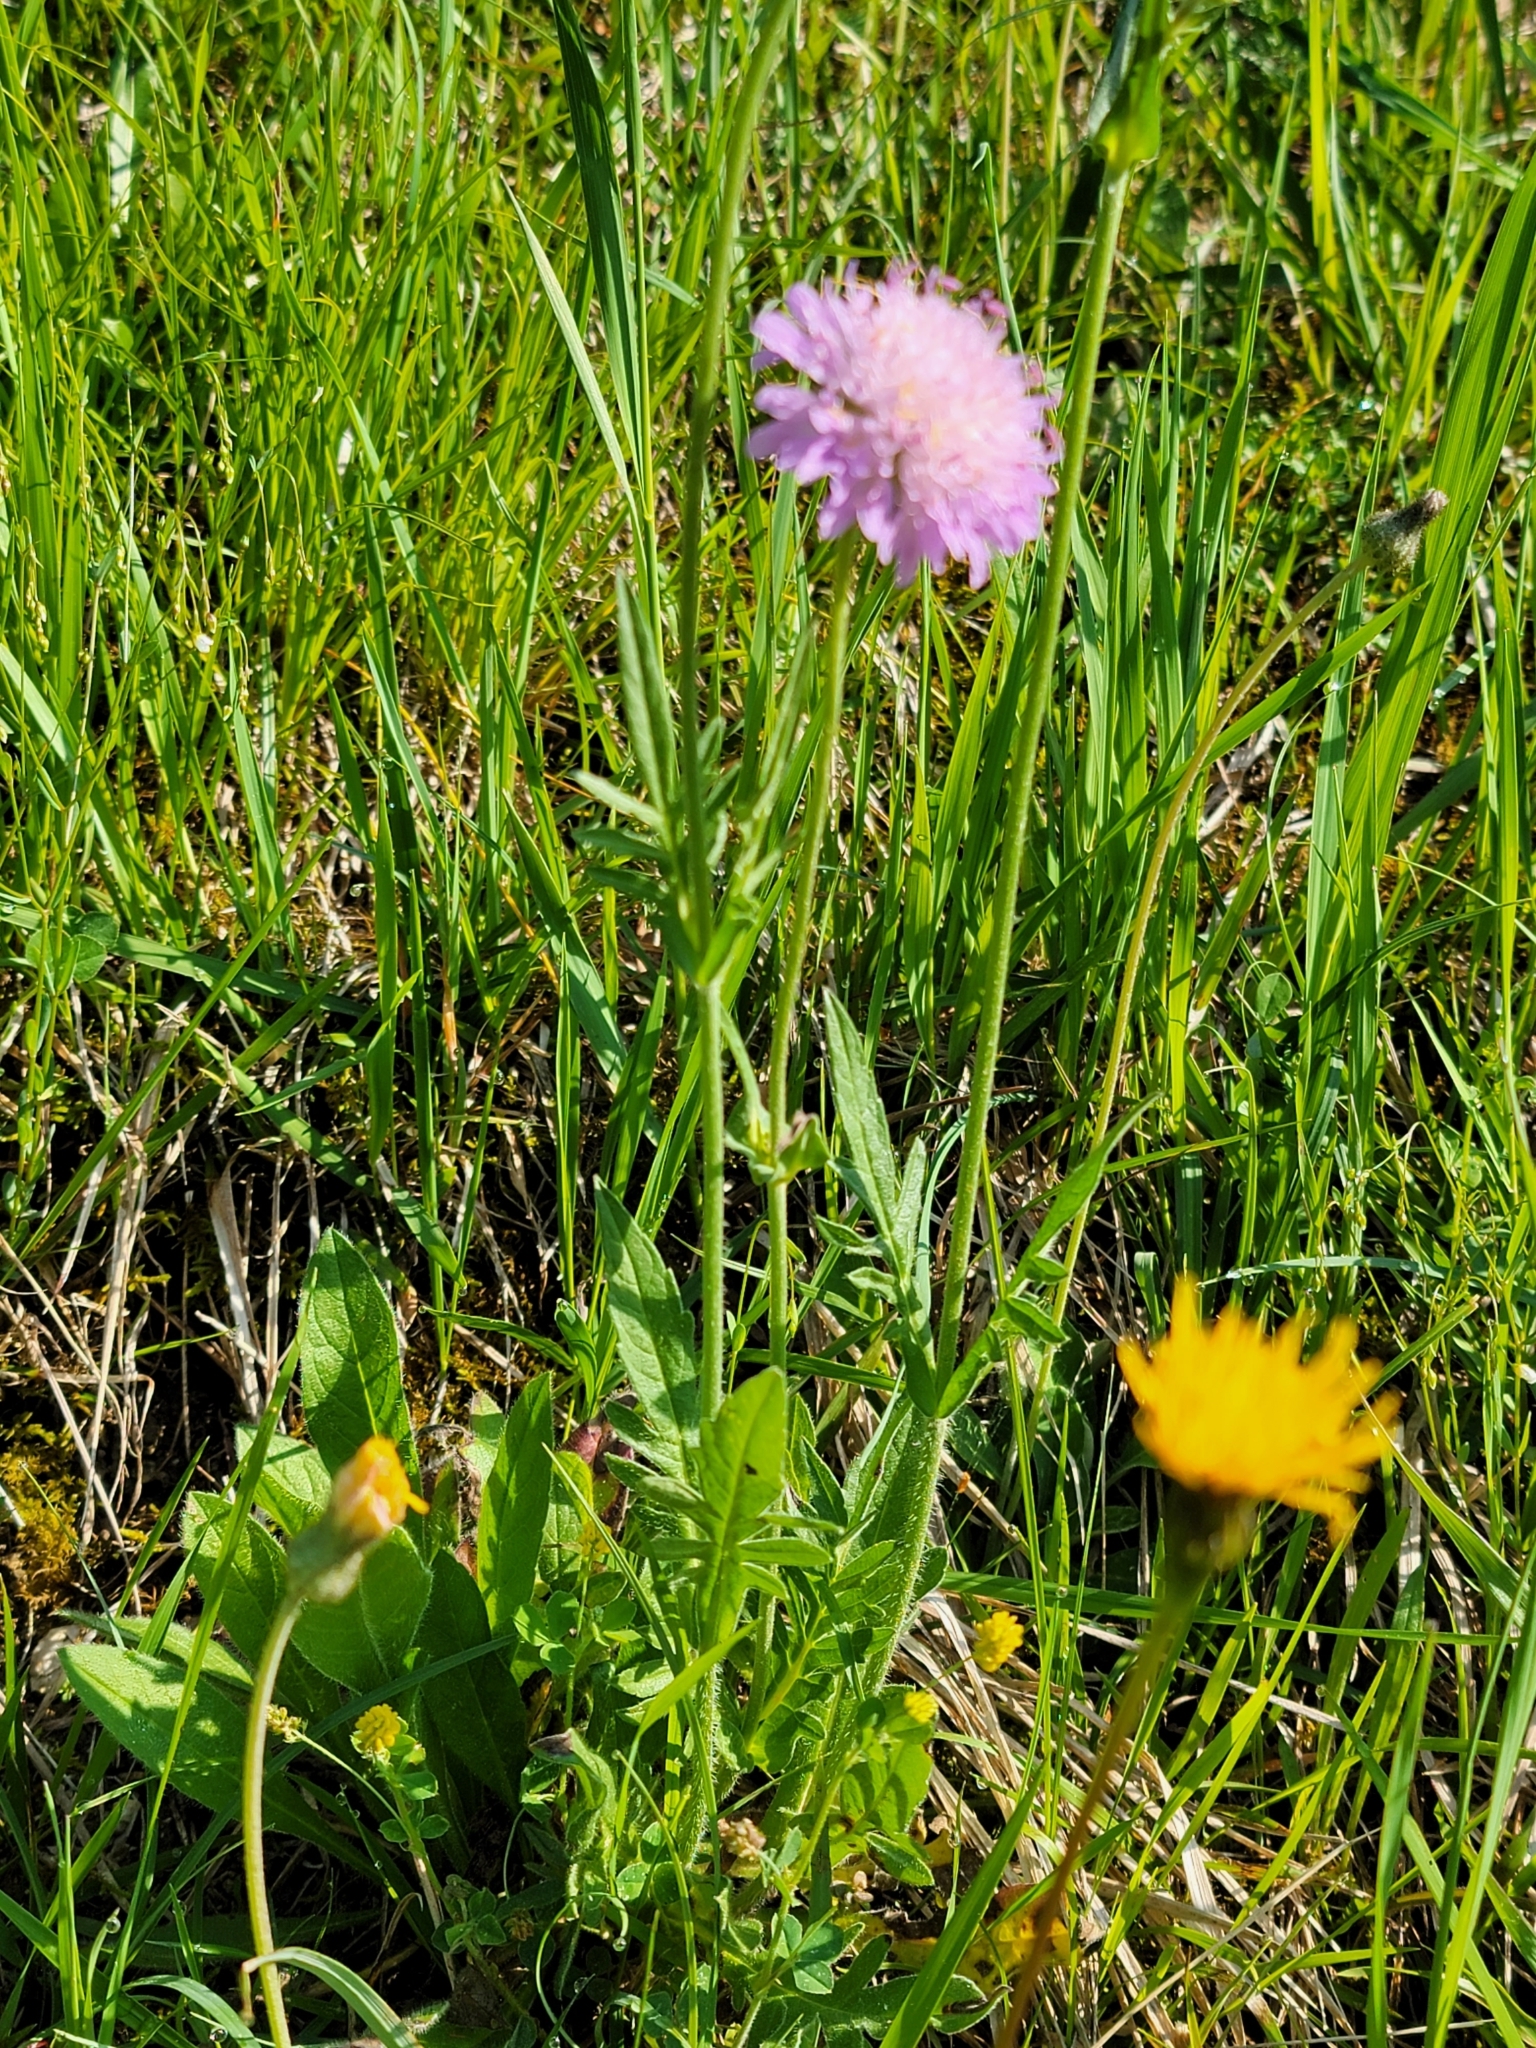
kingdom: Plantae
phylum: Tracheophyta
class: Magnoliopsida
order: Dipsacales
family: Caprifoliaceae
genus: Knautia
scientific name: Knautia arvensis
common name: Field scabiosa
